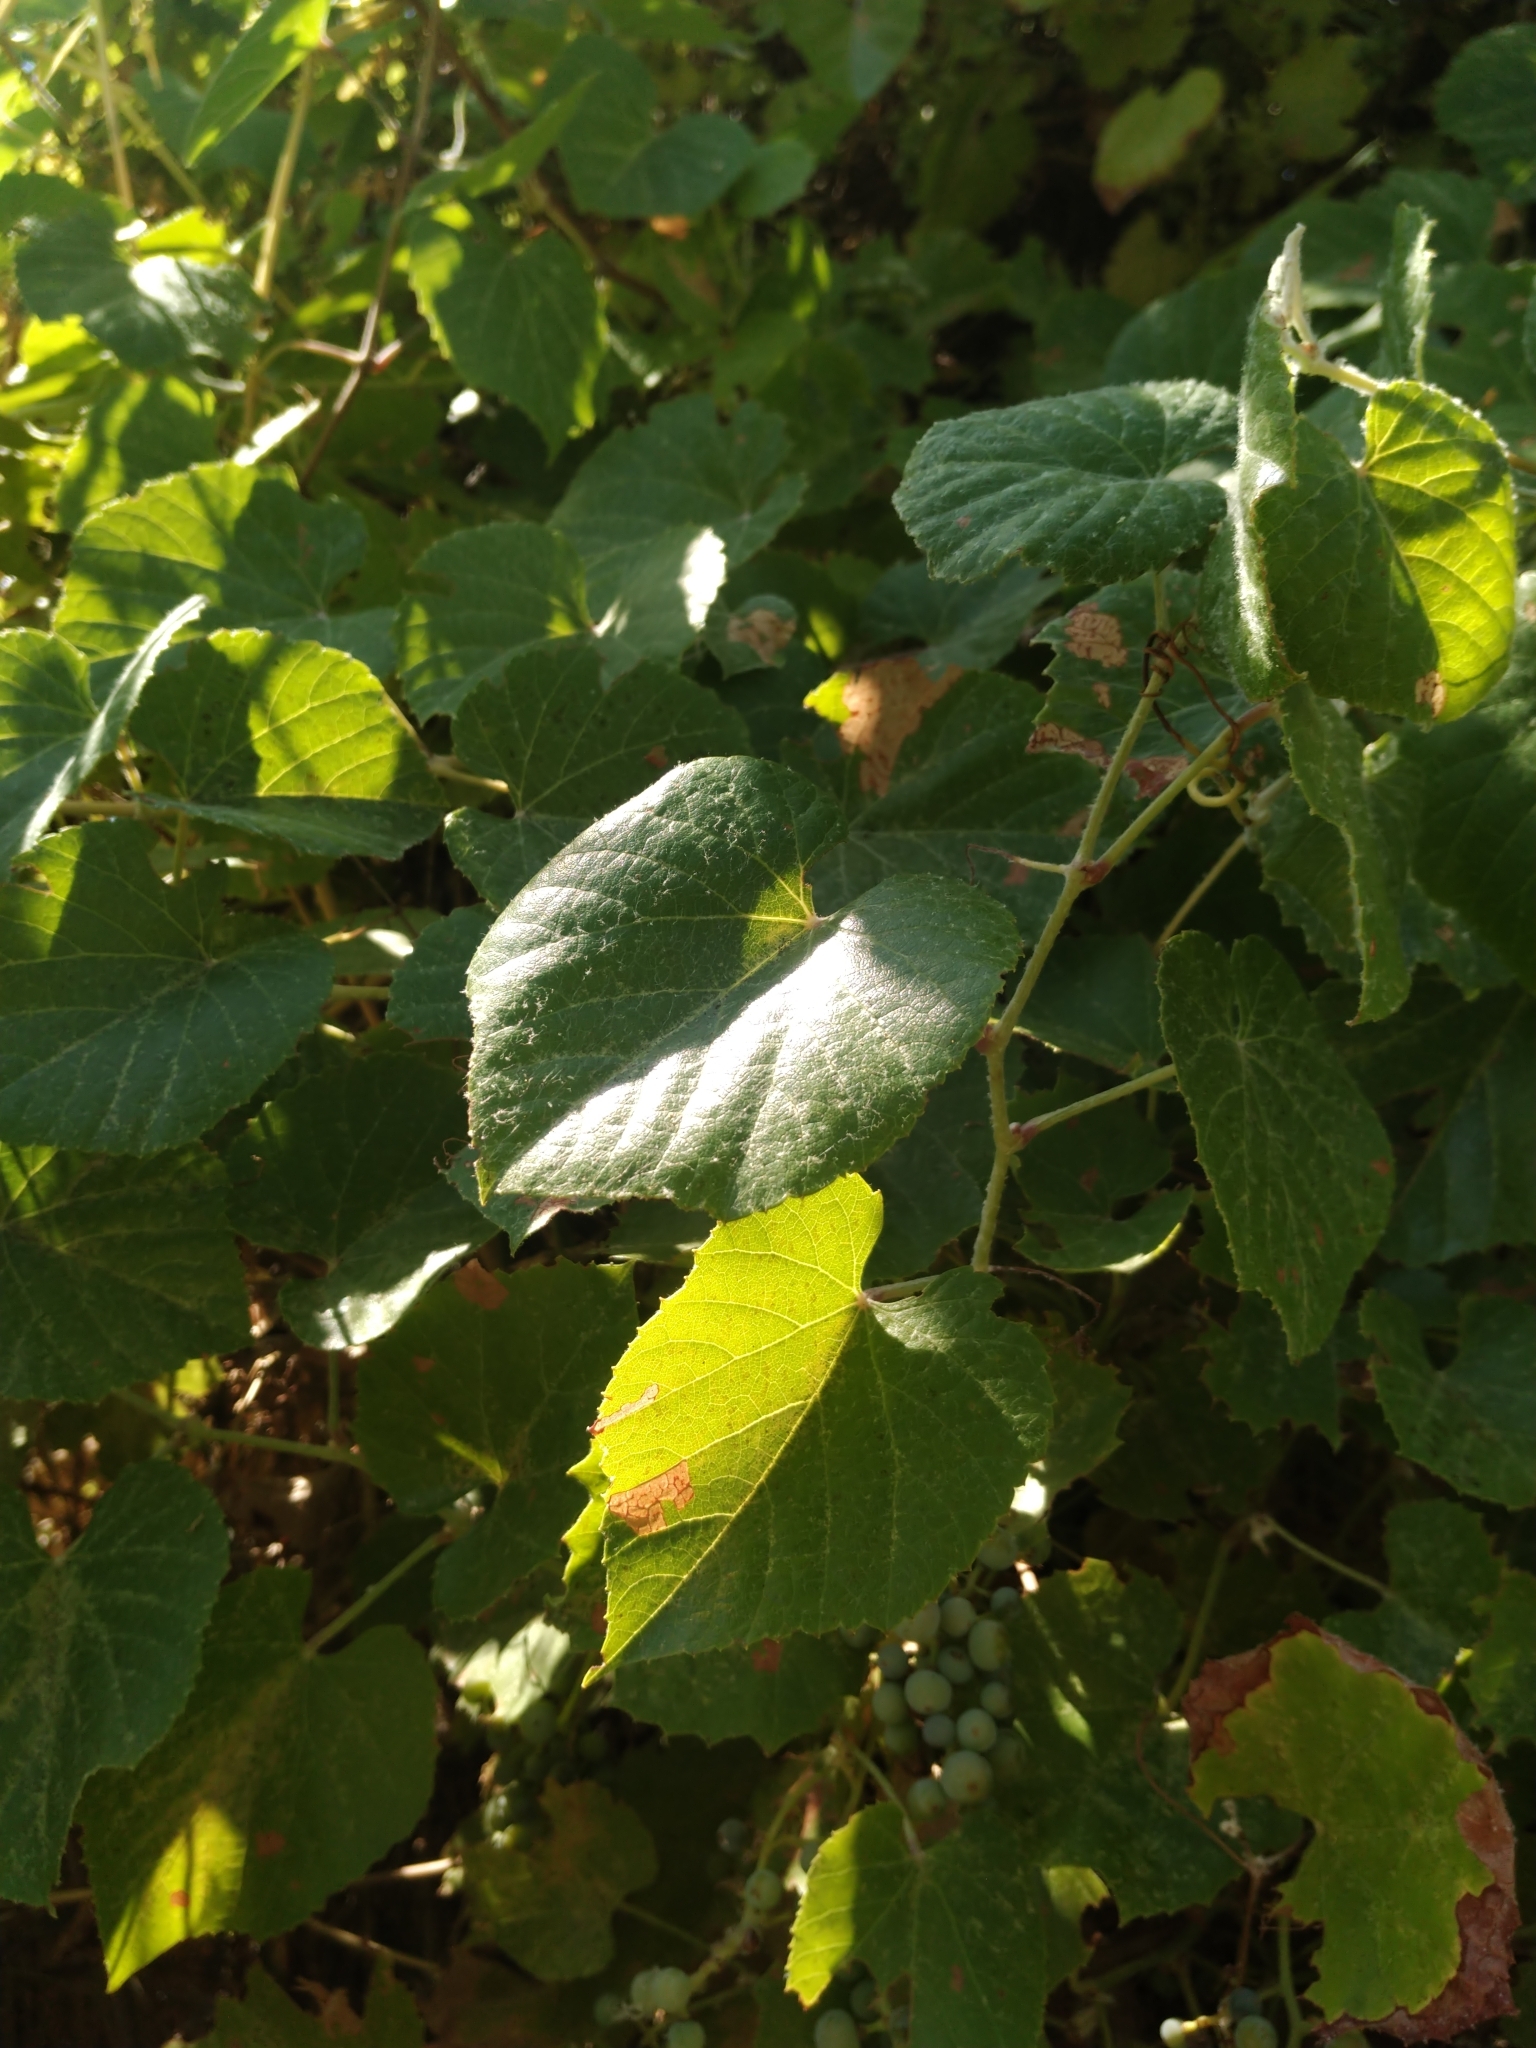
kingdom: Plantae
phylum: Tracheophyta
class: Magnoliopsida
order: Vitales
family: Vitaceae
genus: Vitis
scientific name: Vitis arizonica
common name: Canyon grape
